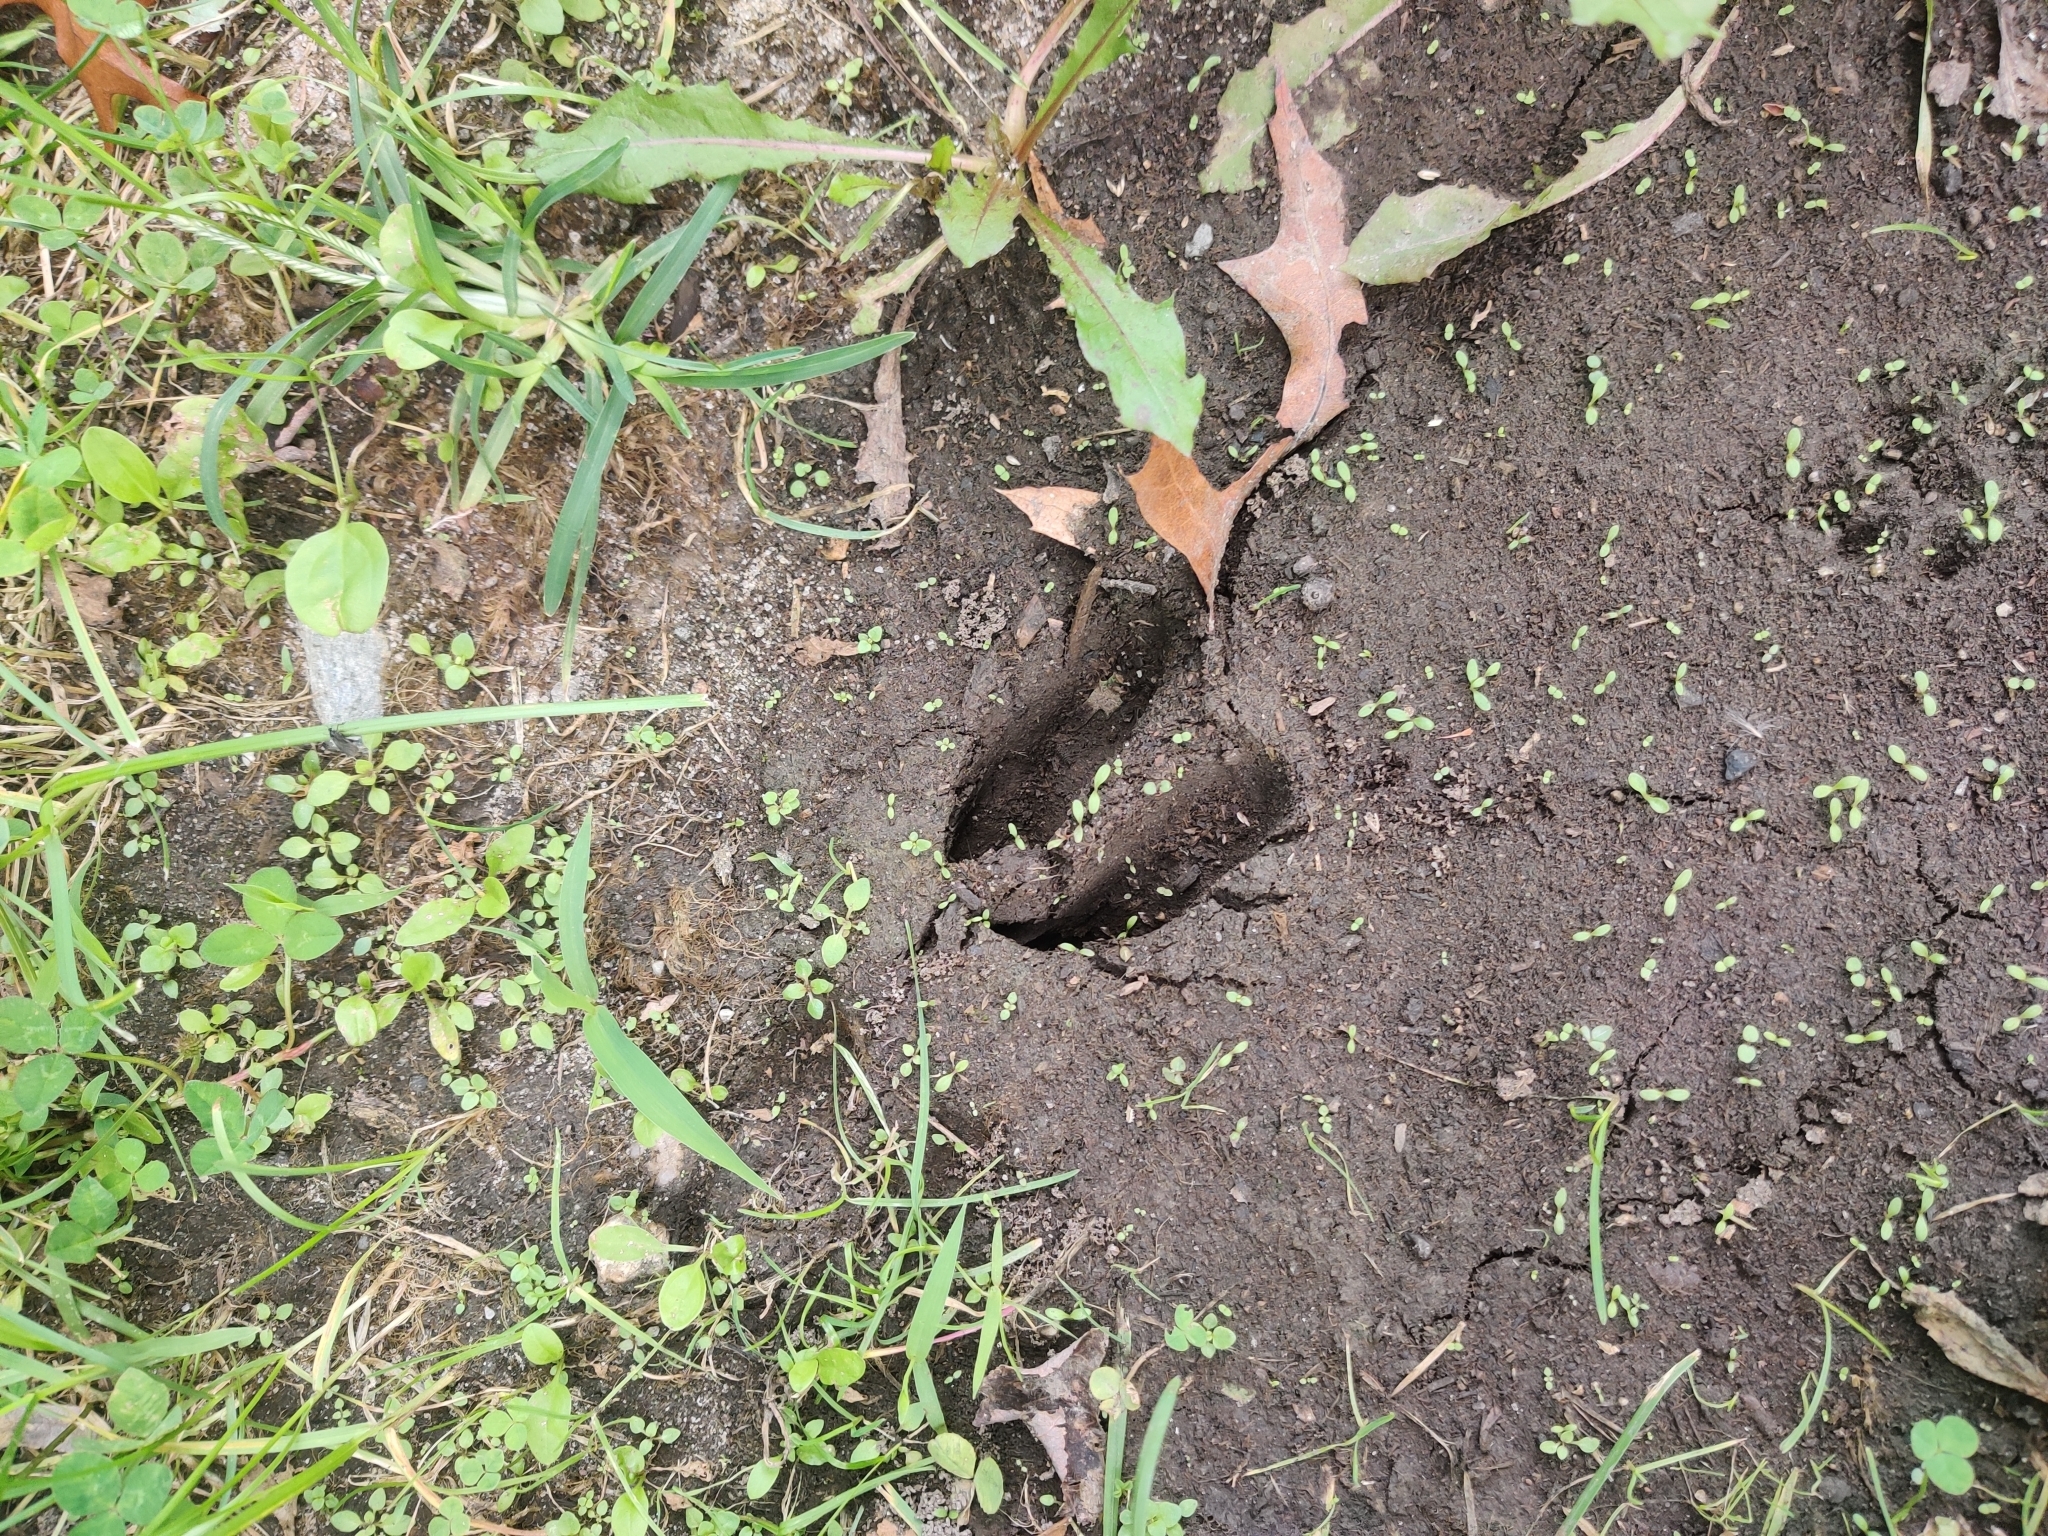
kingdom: Animalia
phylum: Chordata
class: Mammalia
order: Artiodactyla
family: Cervidae
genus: Odocoileus
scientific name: Odocoileus virginianus
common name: White-tailed deer
